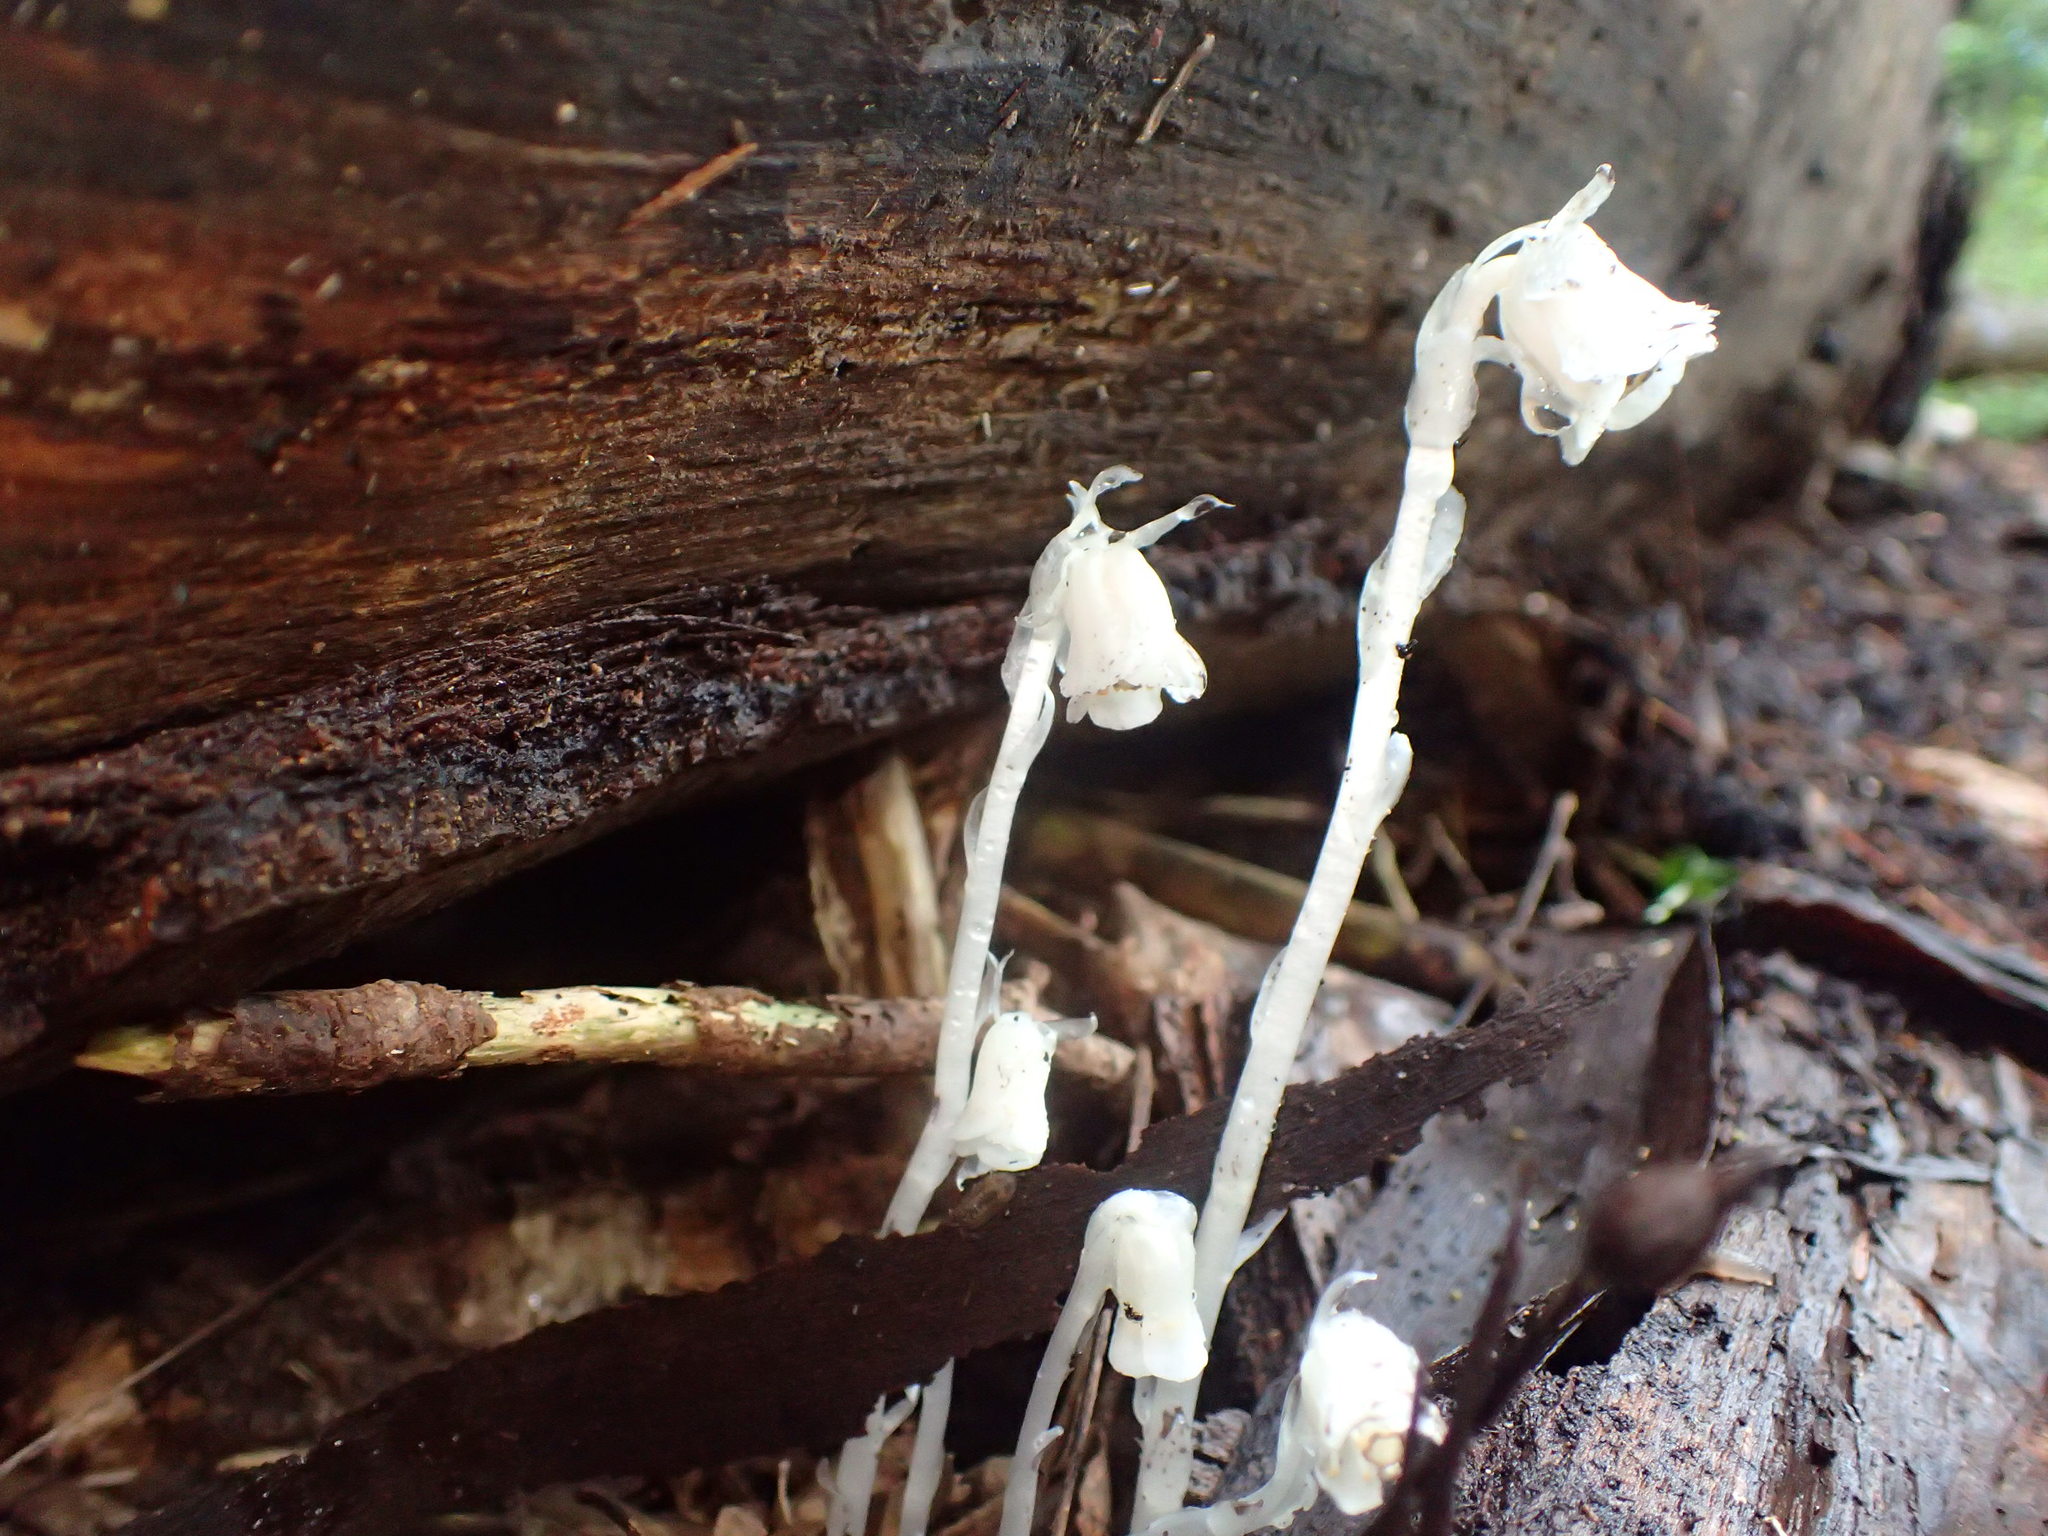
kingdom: Plantae
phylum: Tracheophyta
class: Magnoliopsida
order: Ericales
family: Ericaceae
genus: Monotropa
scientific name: Monotropa uniflora
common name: Convulsion root
